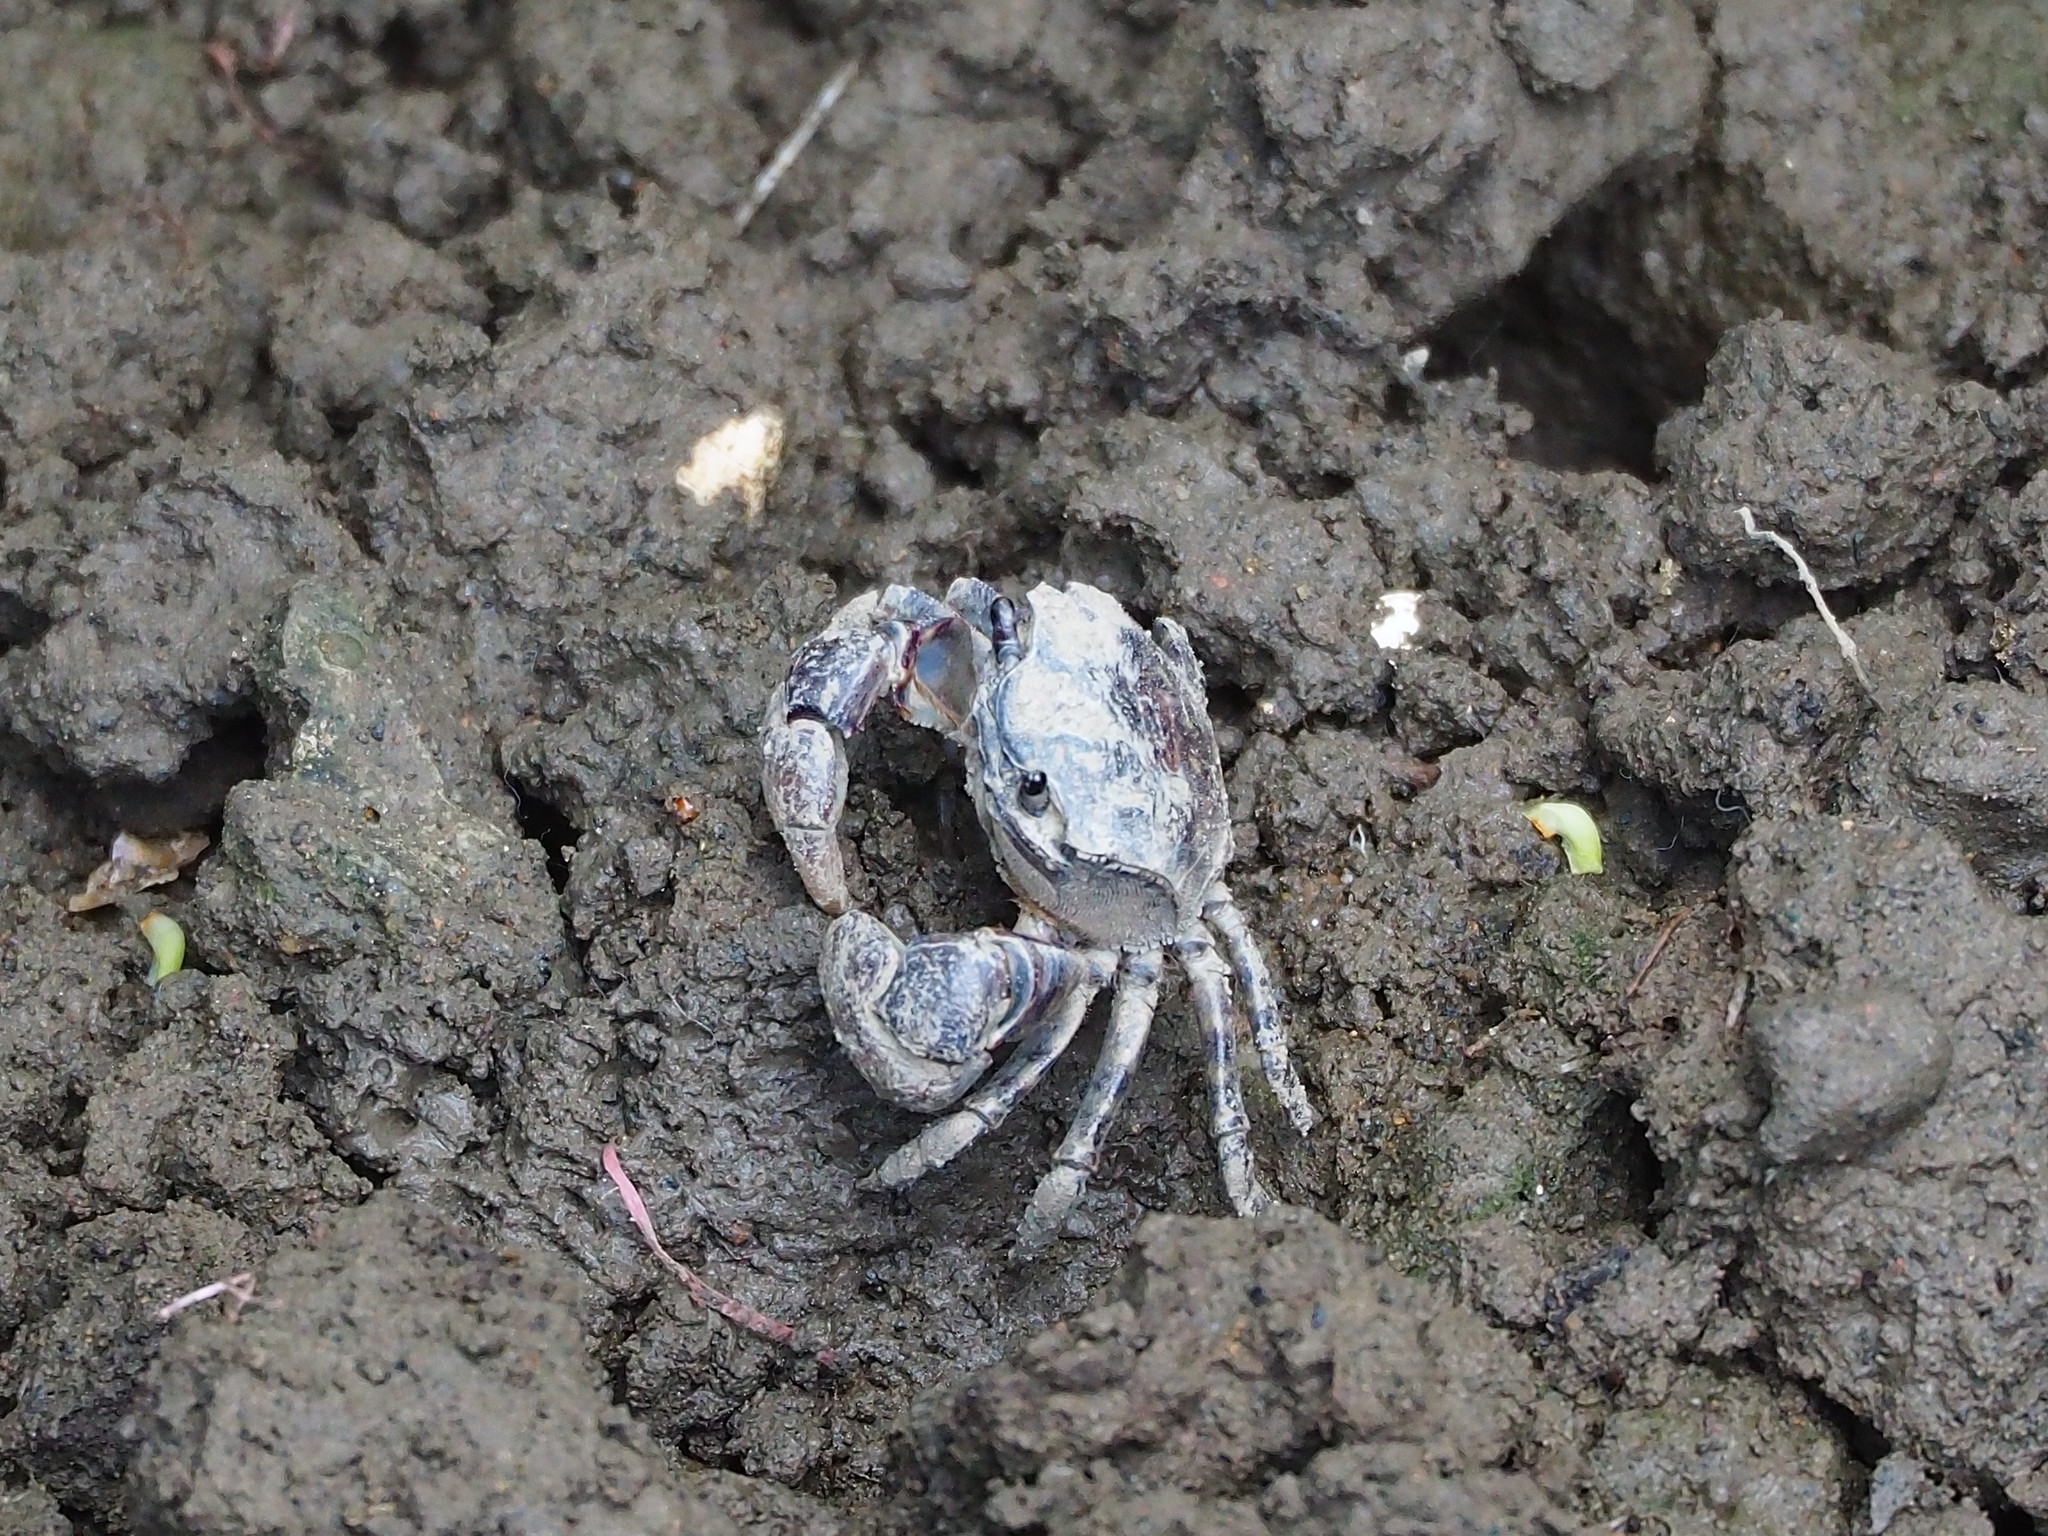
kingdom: Animalia
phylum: Arthropoda
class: Malacostraca
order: Decapoda
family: Varunidae
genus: Pseudohelice
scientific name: Pseudohelice subquadrata
